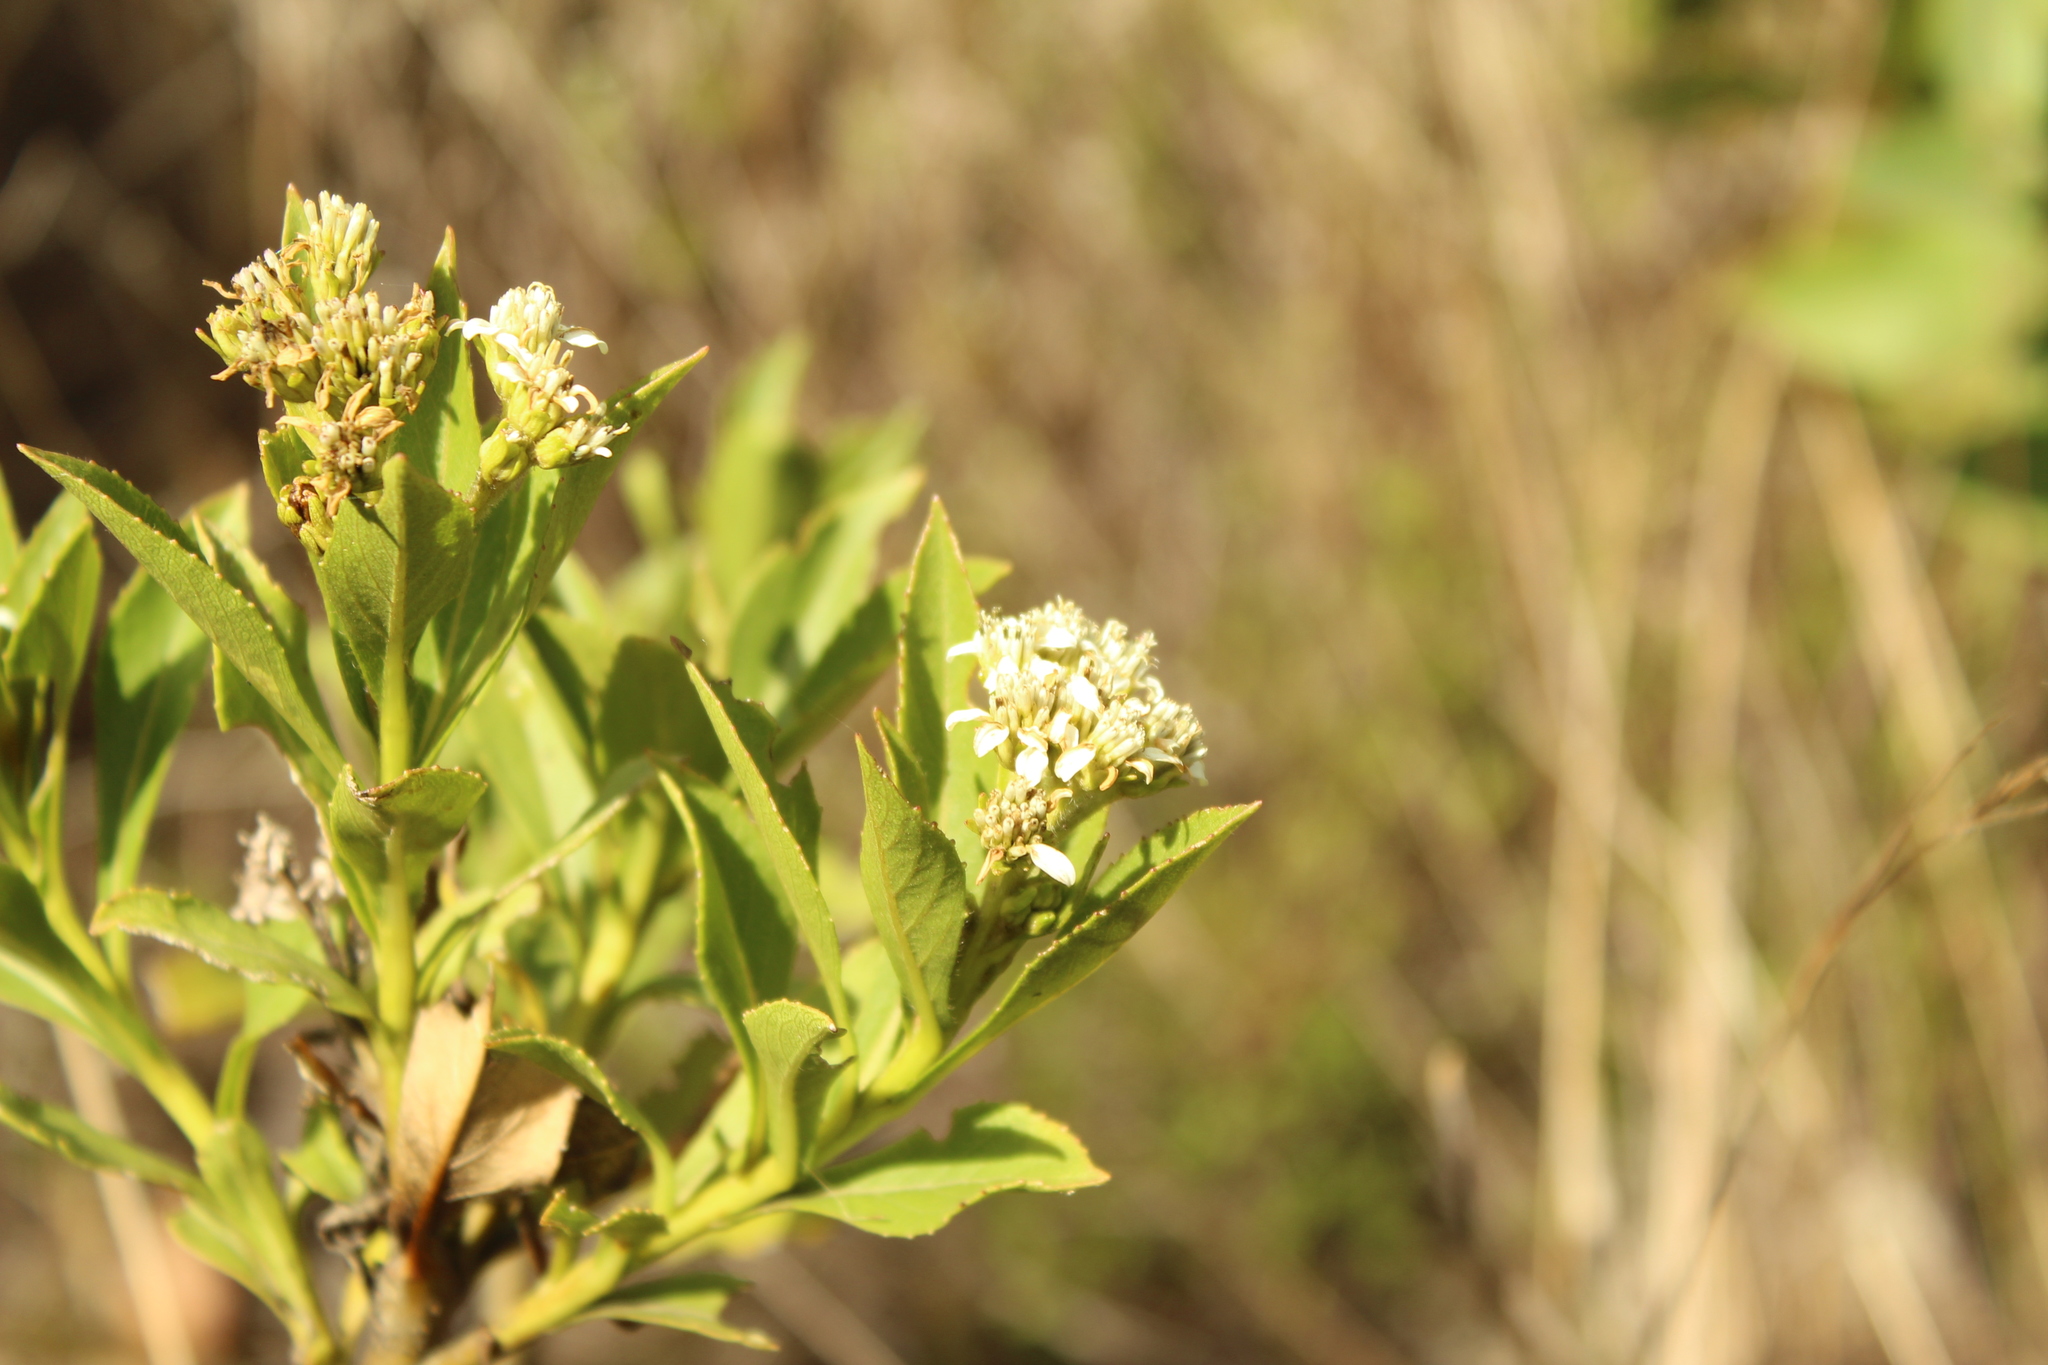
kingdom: Plantae
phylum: Tracheophyta
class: Magnoliopsida
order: Asterales
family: Asteraceae
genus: Verbesina
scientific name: Verbesina centroboyacana
